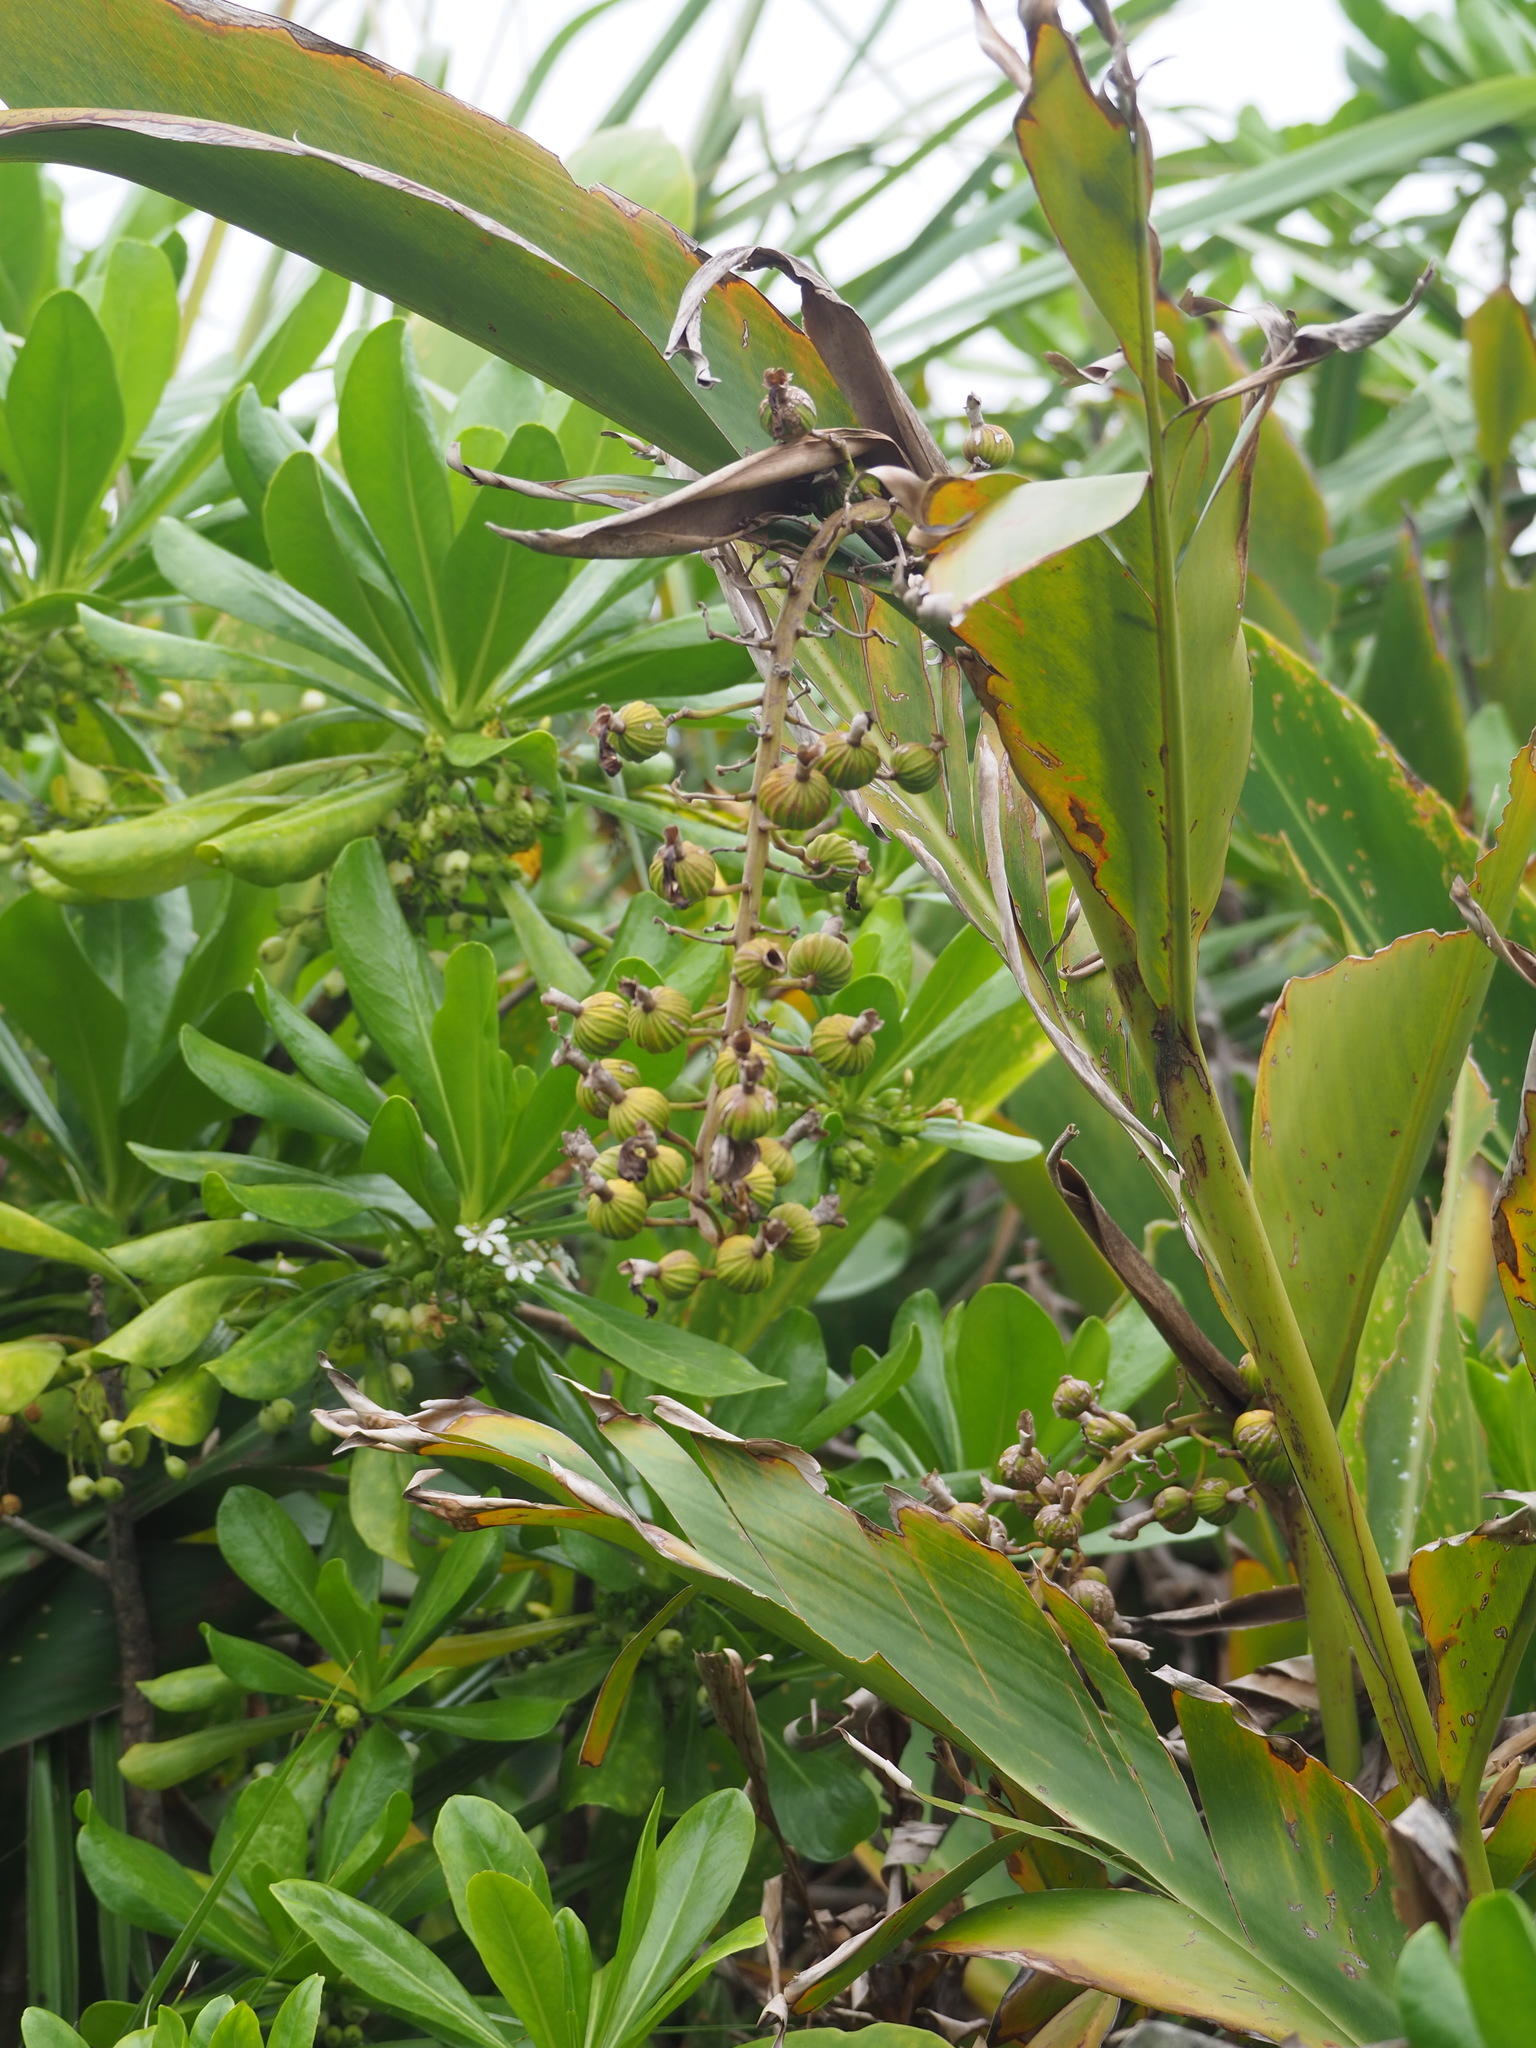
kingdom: Plantae
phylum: Tracheophyta
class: Liliopsida
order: Zingiberales
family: Zingiberaceae
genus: Alpinia
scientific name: Alpinia zerumbet
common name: Shellplant
